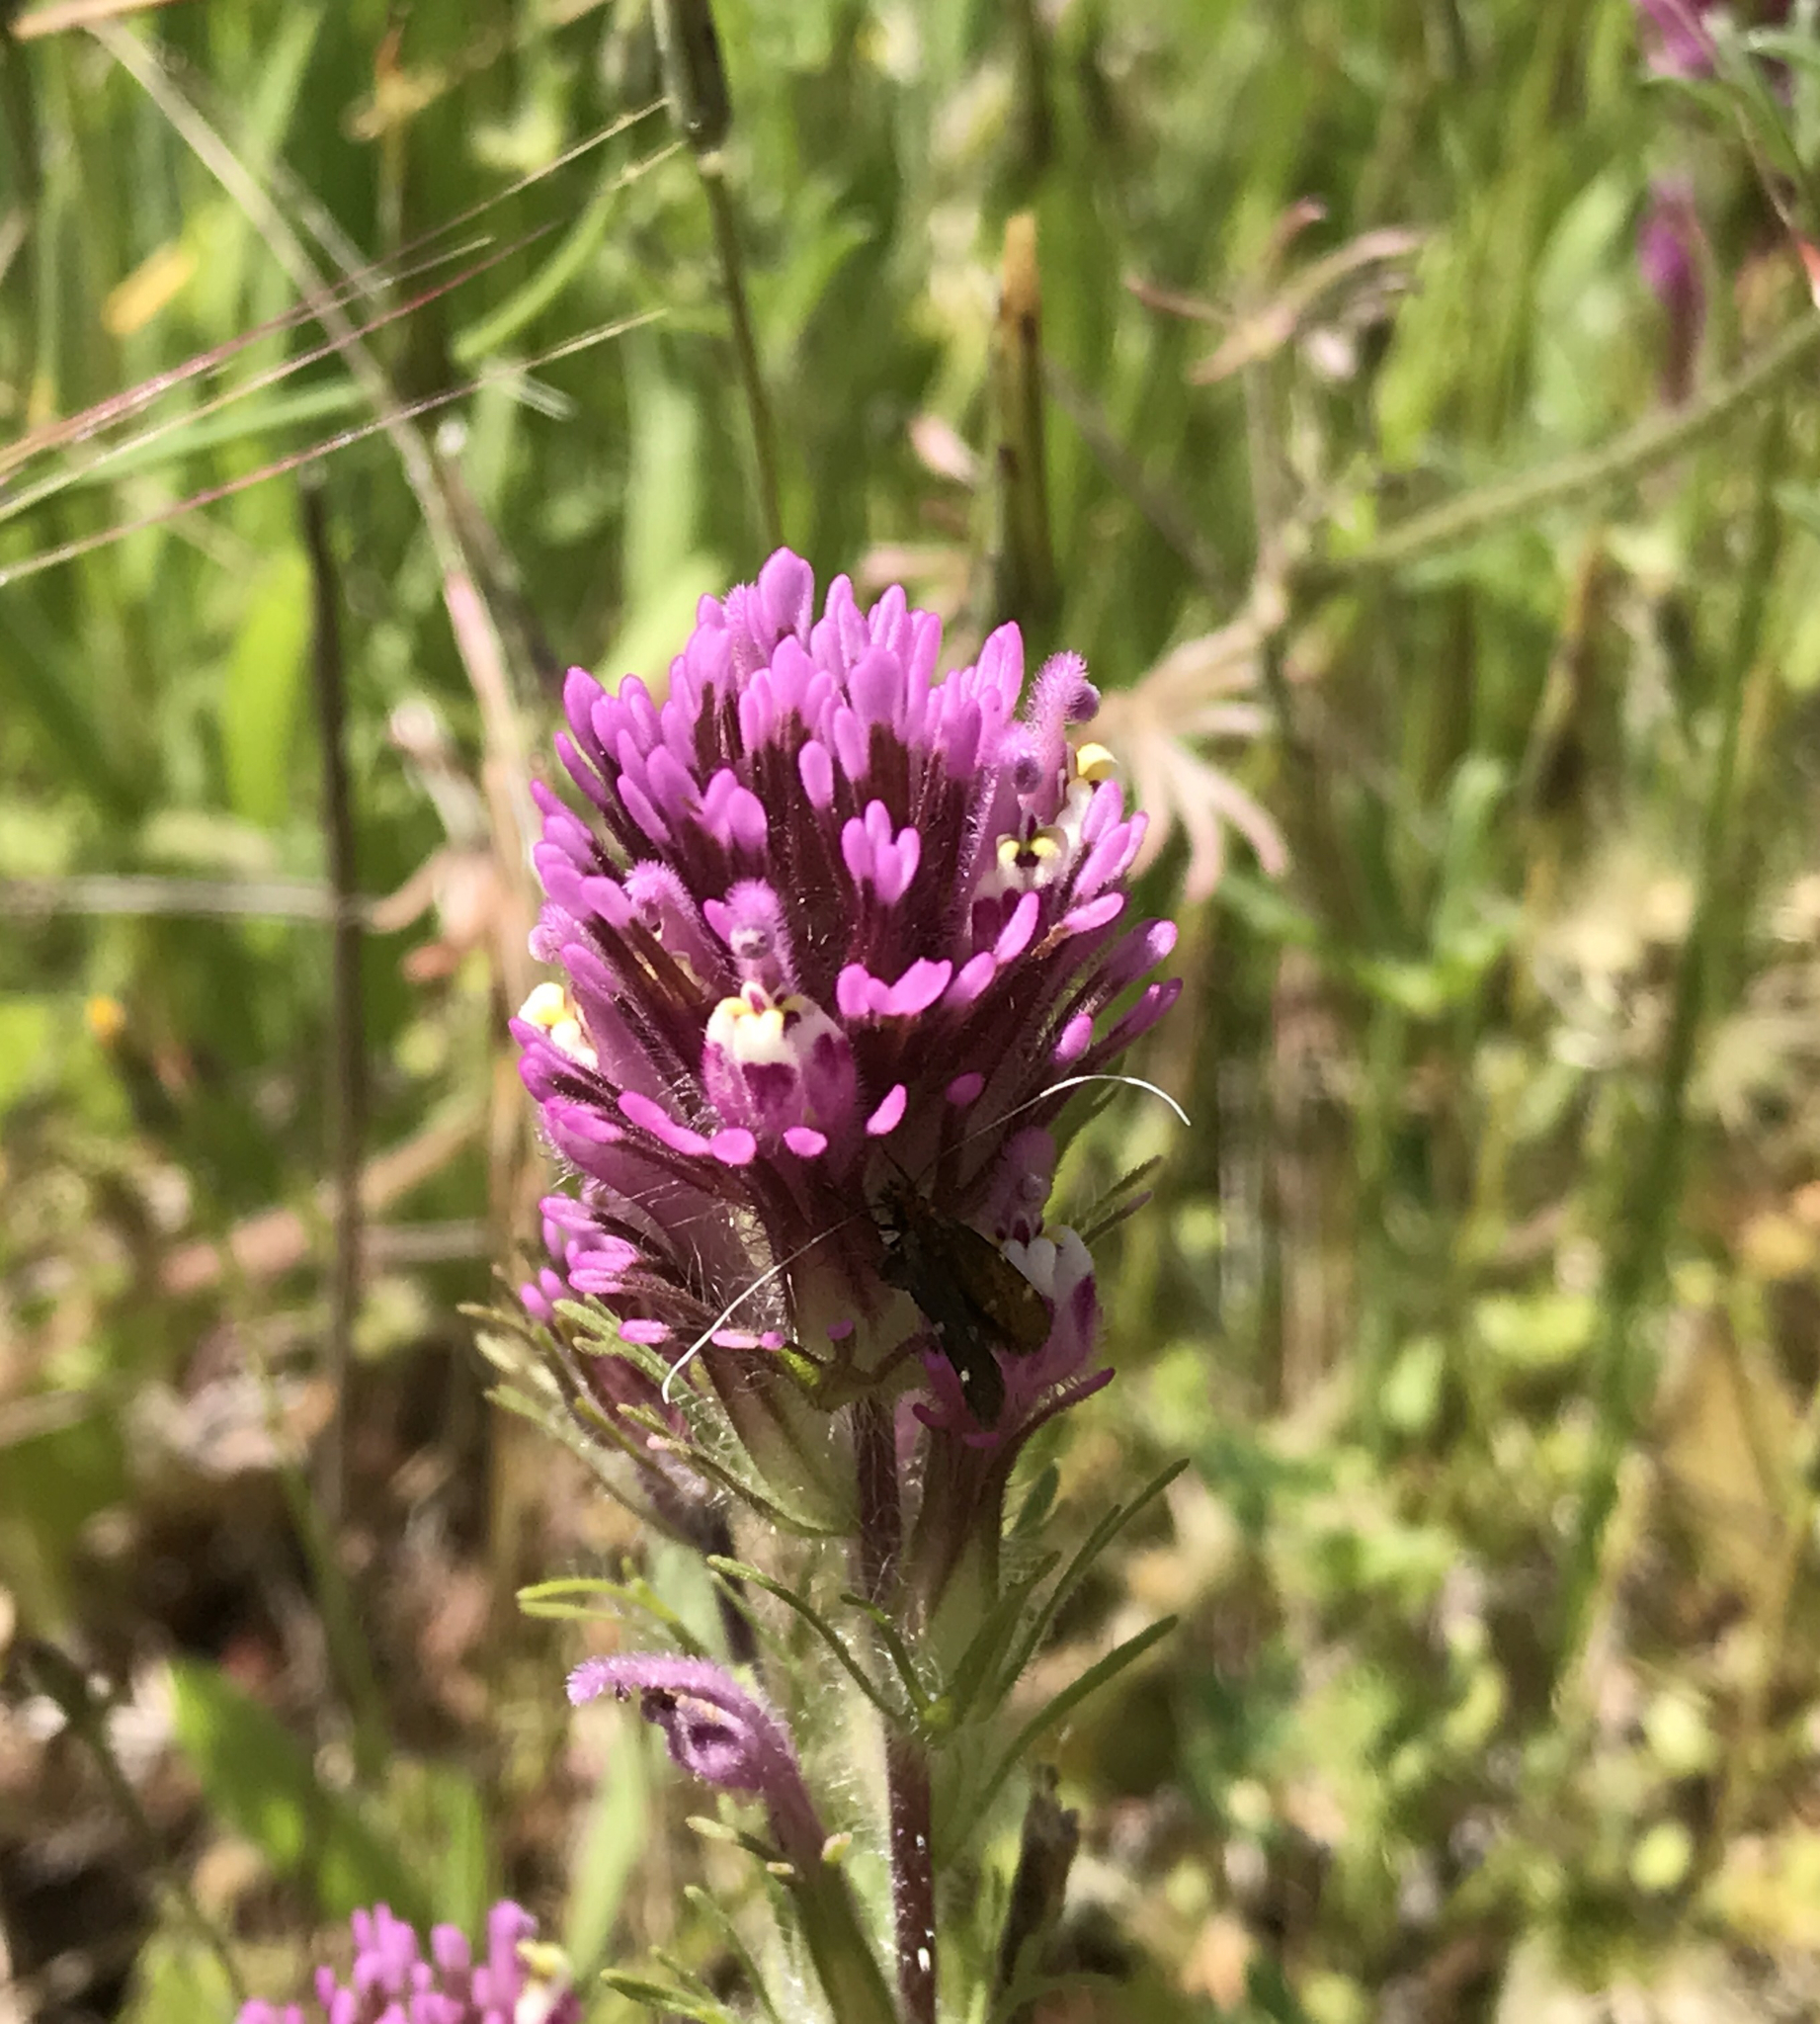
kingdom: Plantae
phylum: Tracheophyta
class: Magnoliopsida
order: Lamiales
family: Orobanchaceae
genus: Castilleja
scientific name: Castilleja exserta
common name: Purple owl-clover
